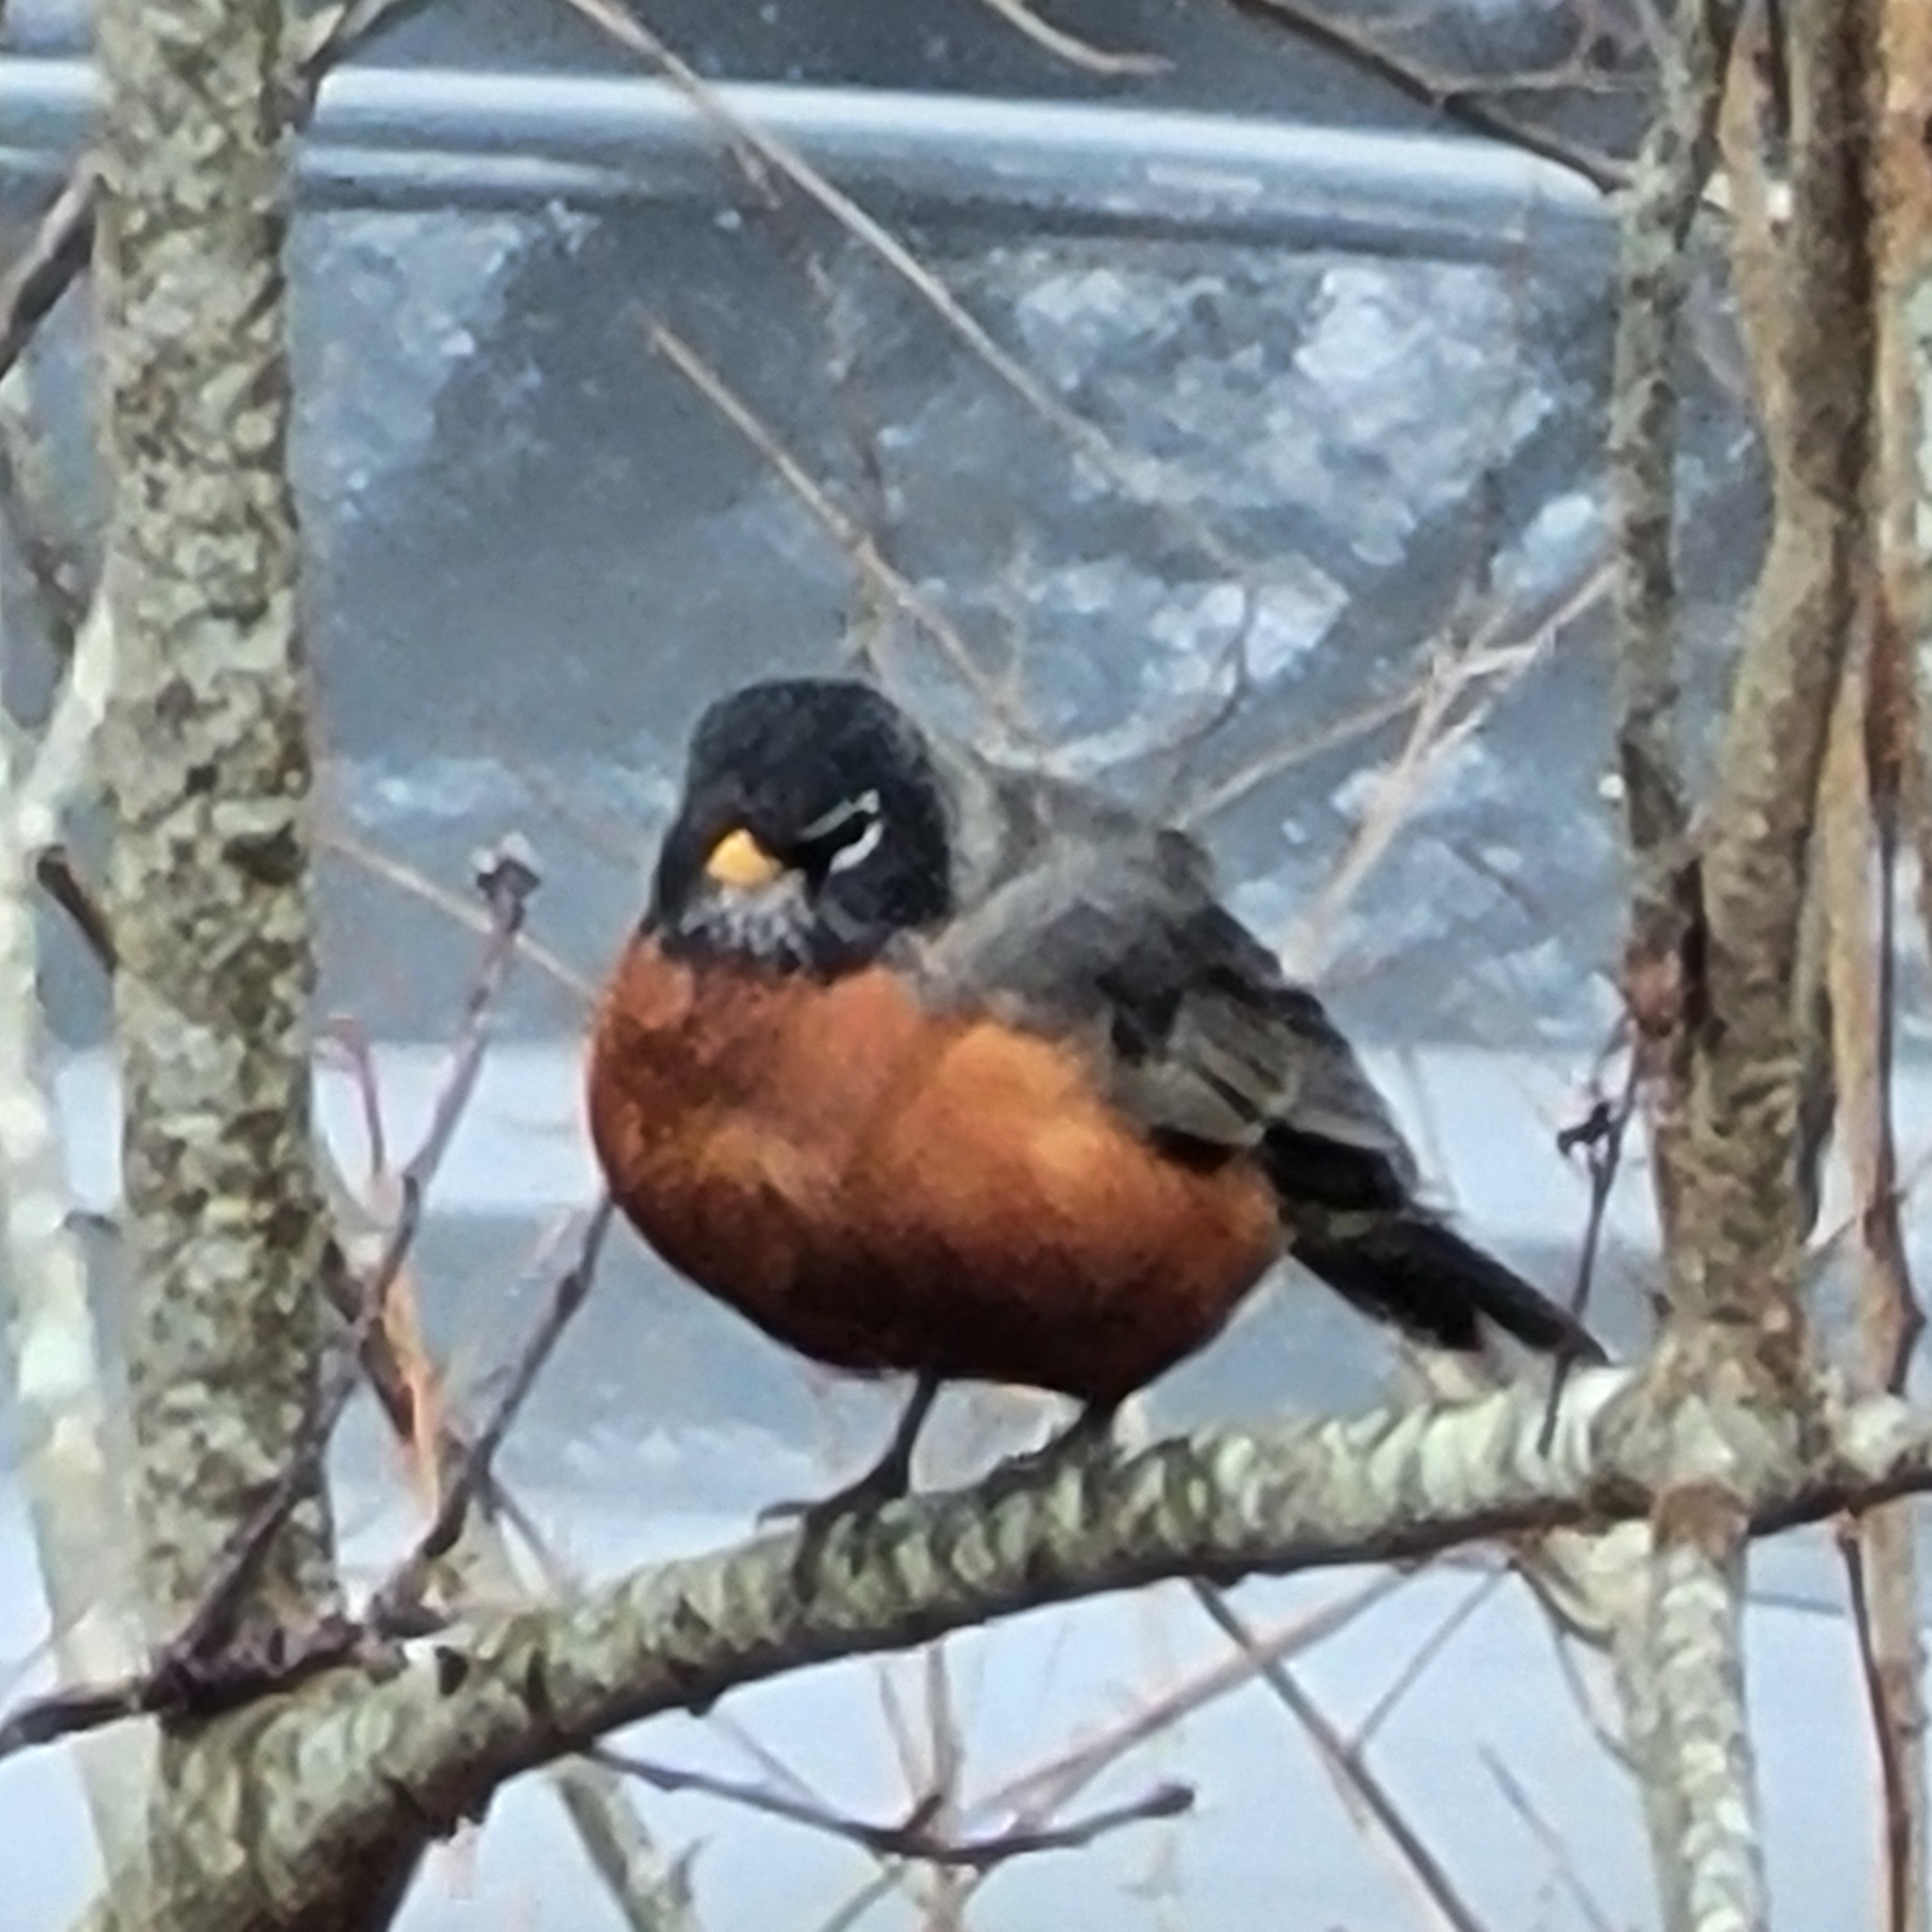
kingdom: Animalia
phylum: Chordata
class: Aves
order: Passeriformes
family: Turdidae
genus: Turdus
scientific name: Turdus migratorius
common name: American robin
